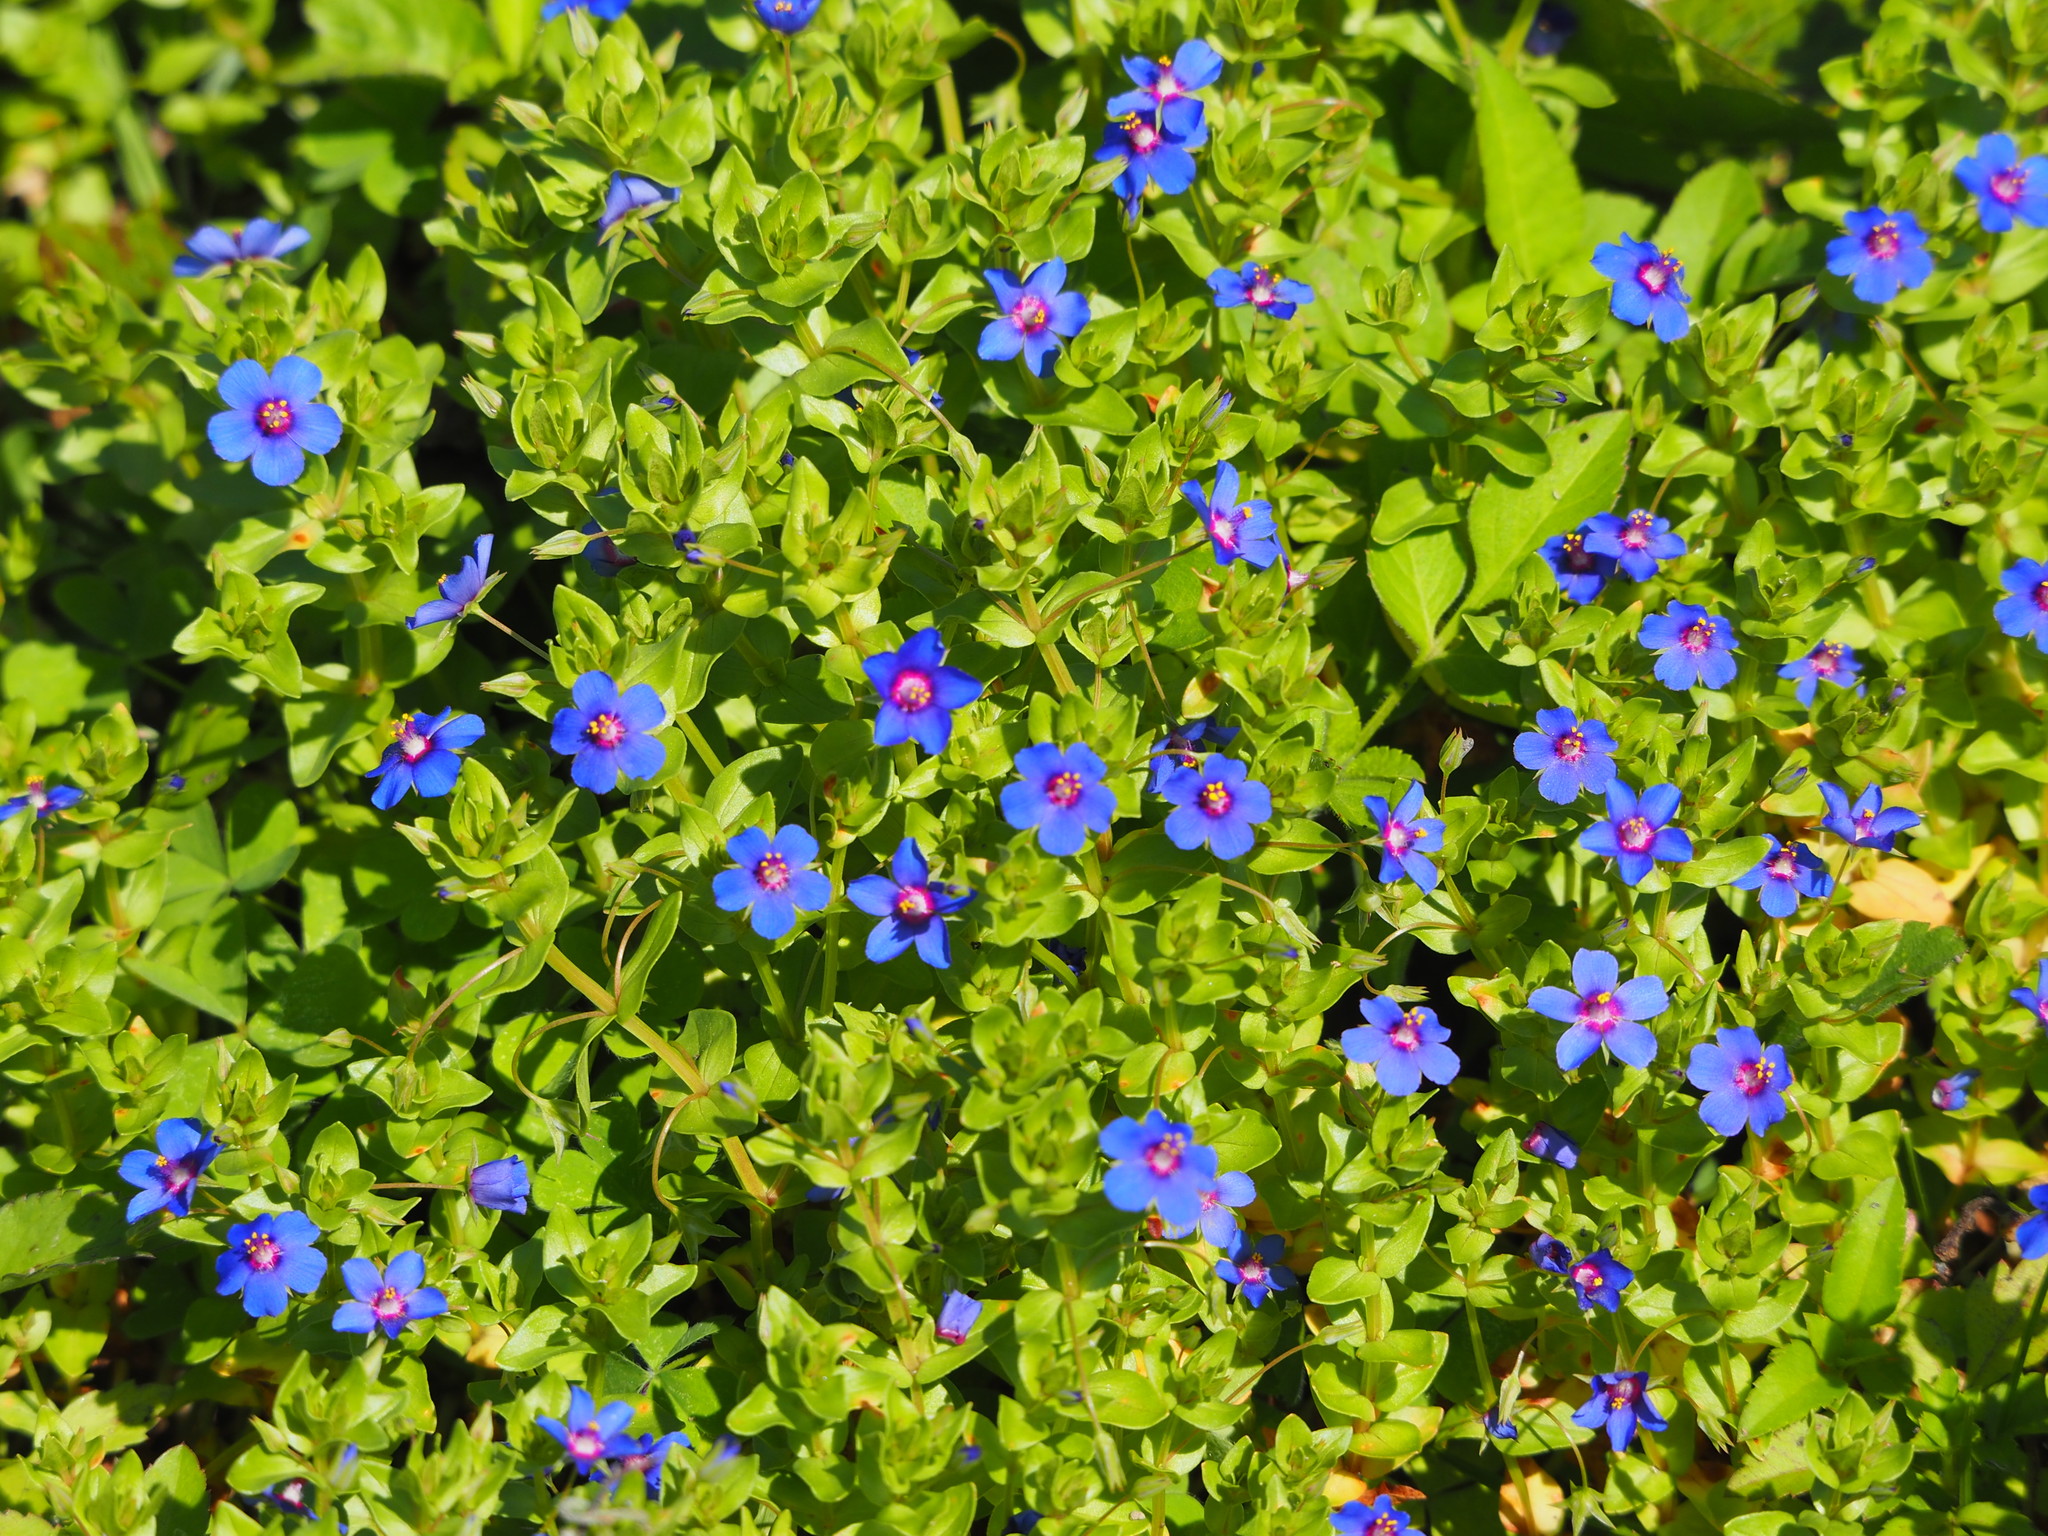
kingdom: Plantae
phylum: Tracheophyta
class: Magnoliopsida
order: Ericales
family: Primulaceae
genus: Lysimachia
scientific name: Lysimachia loeflingii
